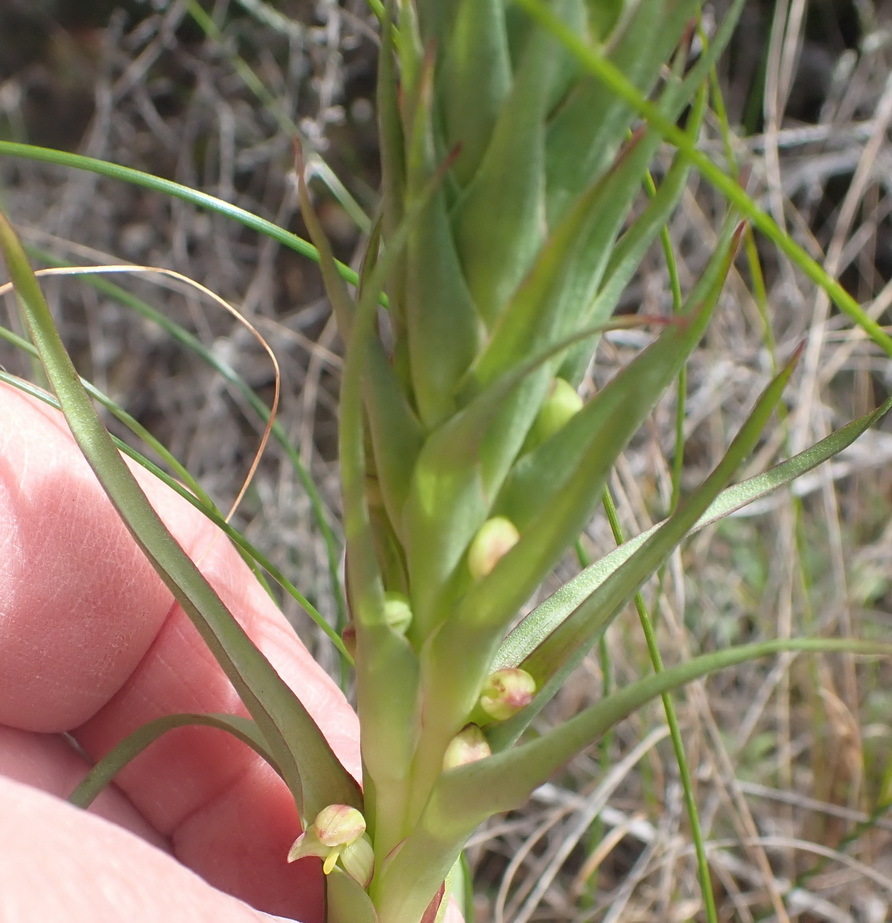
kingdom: Plantae
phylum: Tracheophyta
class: Liliopsida
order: Asparagales
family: Orchidaceae
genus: Disa
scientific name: Disa bracteata
